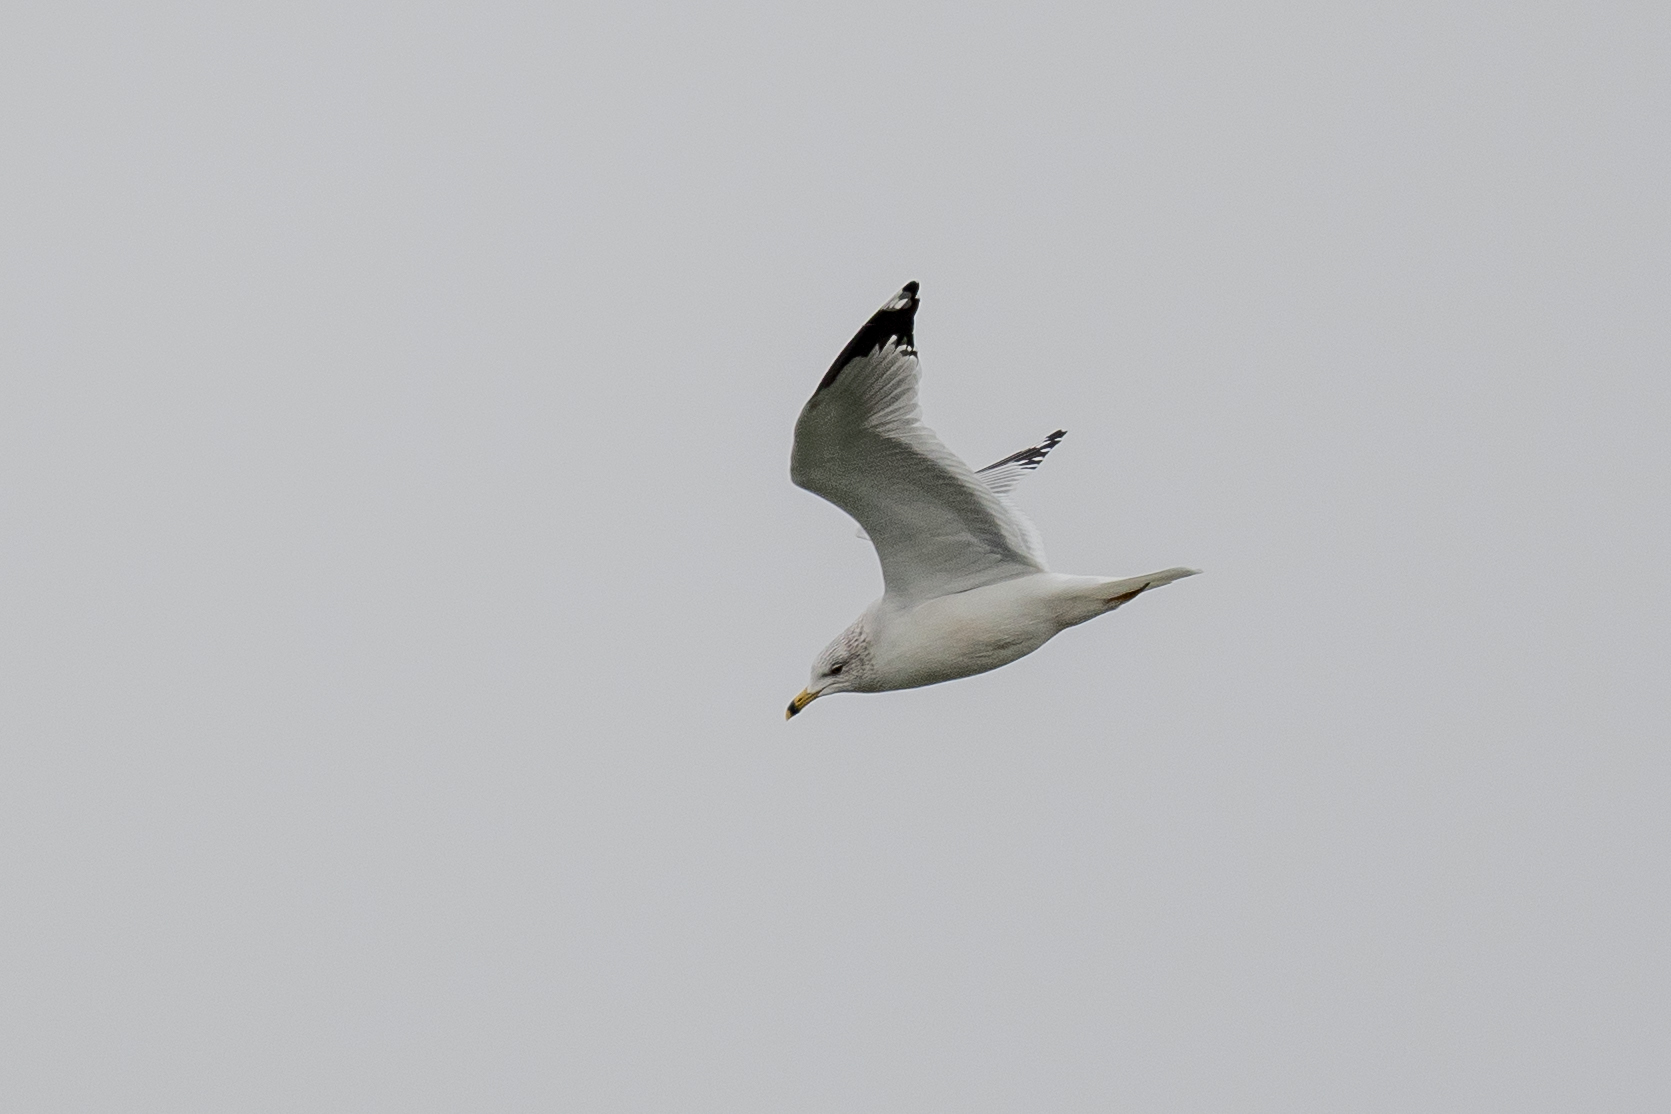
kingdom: Animalia
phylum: Chordata
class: Aves
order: Charadriiformes
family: Laridae
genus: Larus
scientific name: Larus delawarensis
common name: Ring-billed gull
